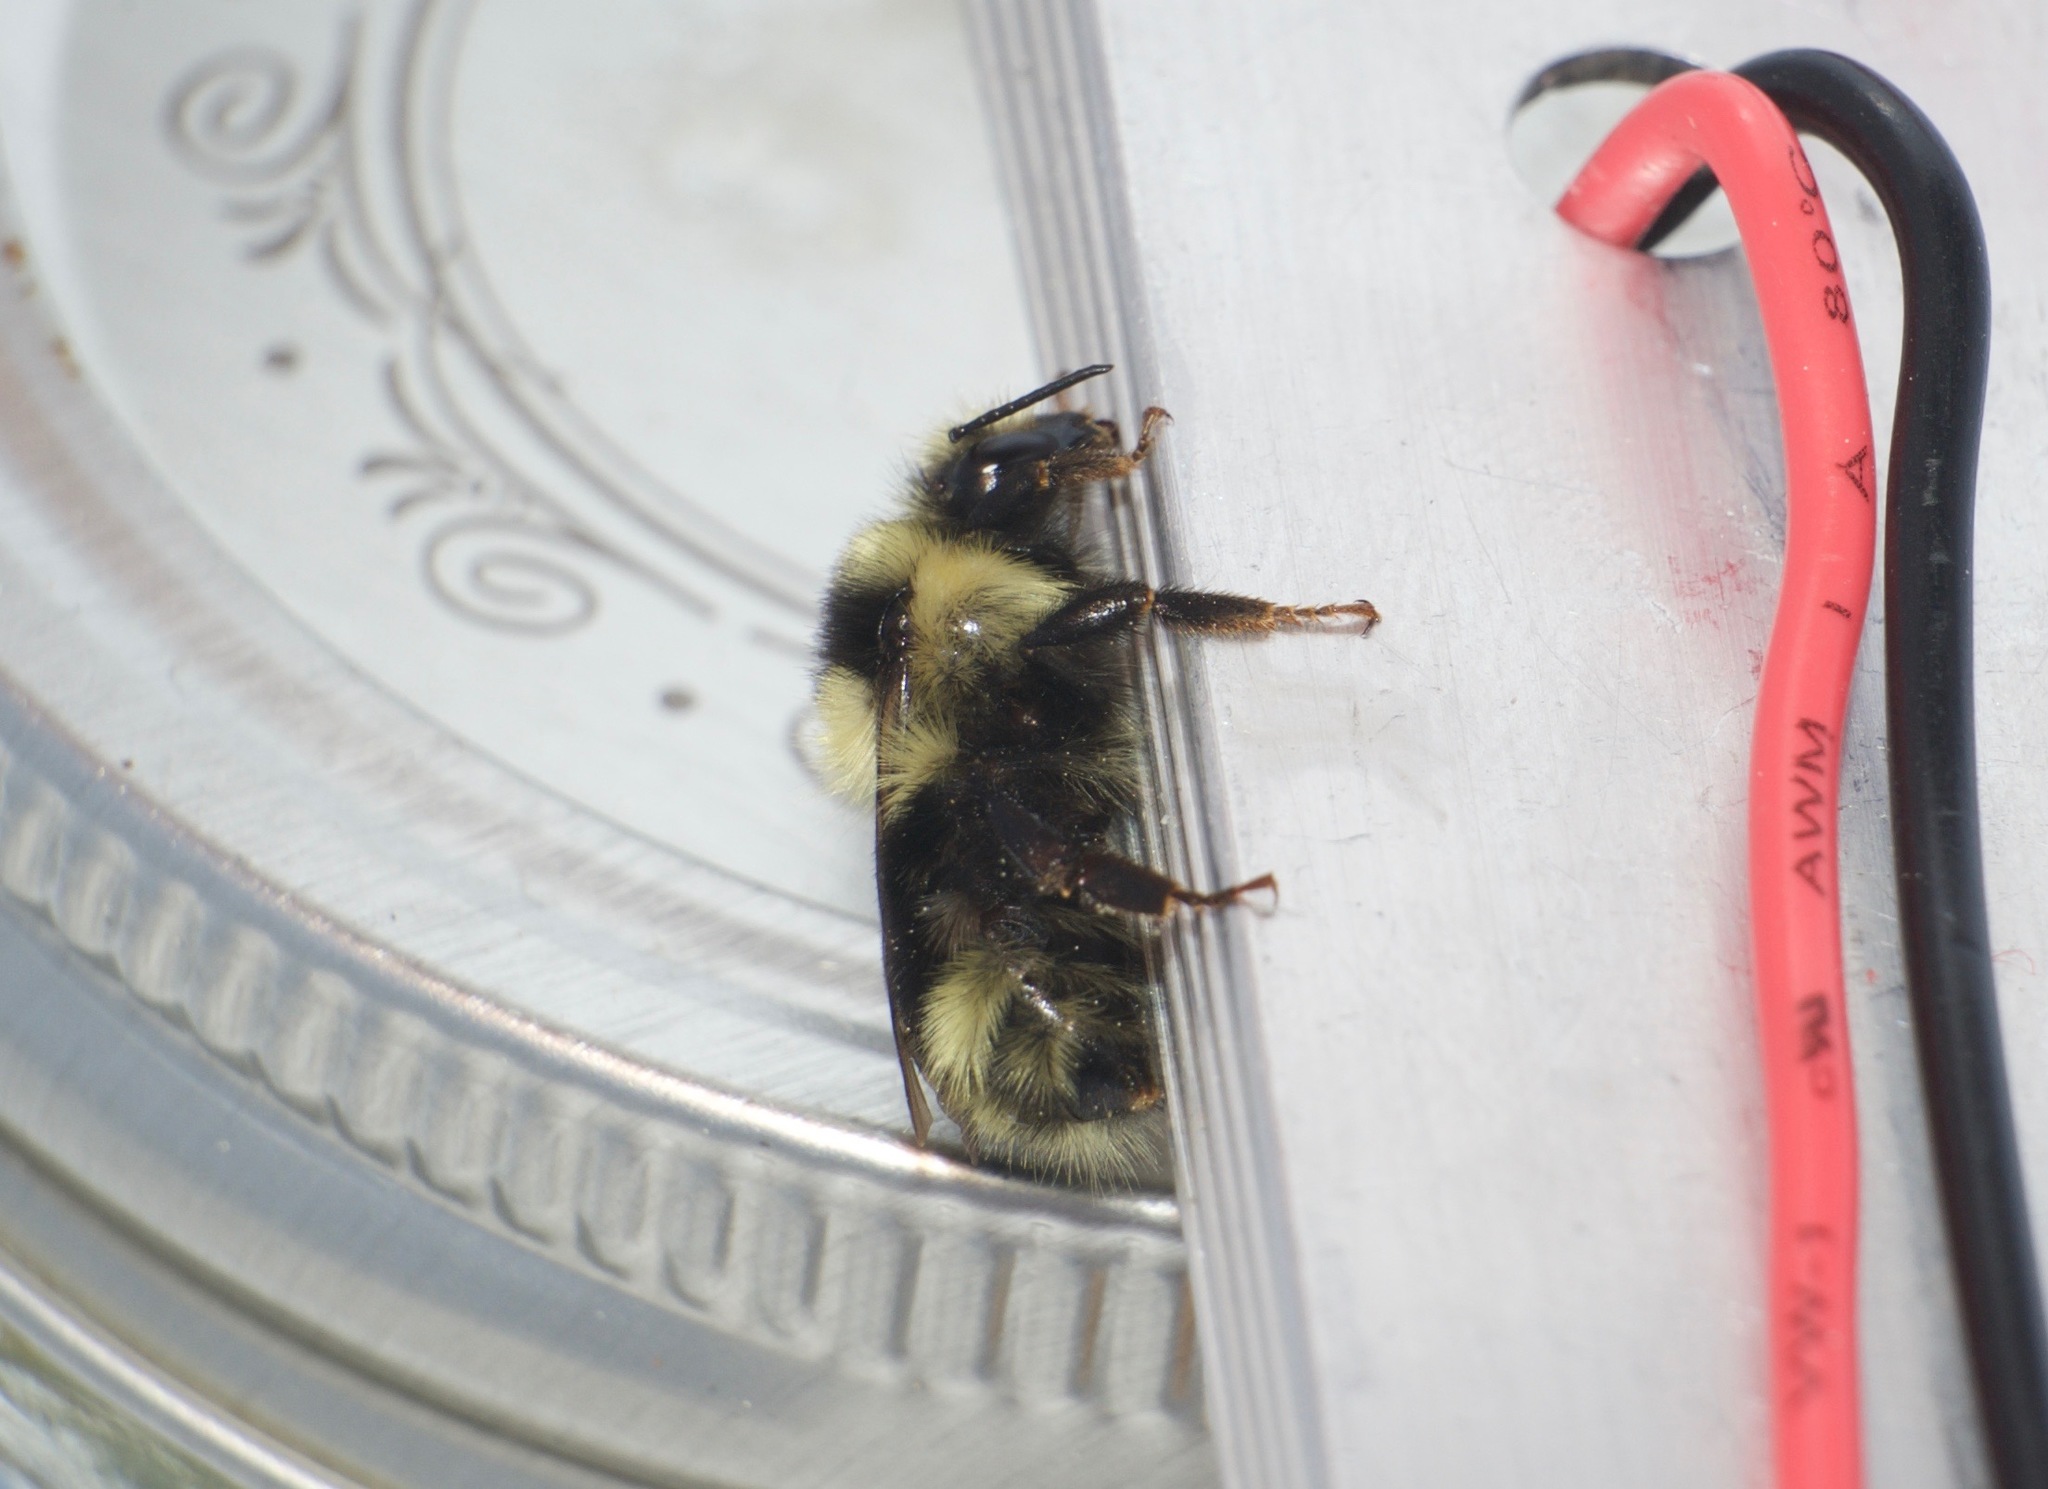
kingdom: Animalia
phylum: Arthropoda
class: Insecta
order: Hymenoptera
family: Apidae
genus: Bombus
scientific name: Bombus melanopygus
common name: Black tail bumble bee
